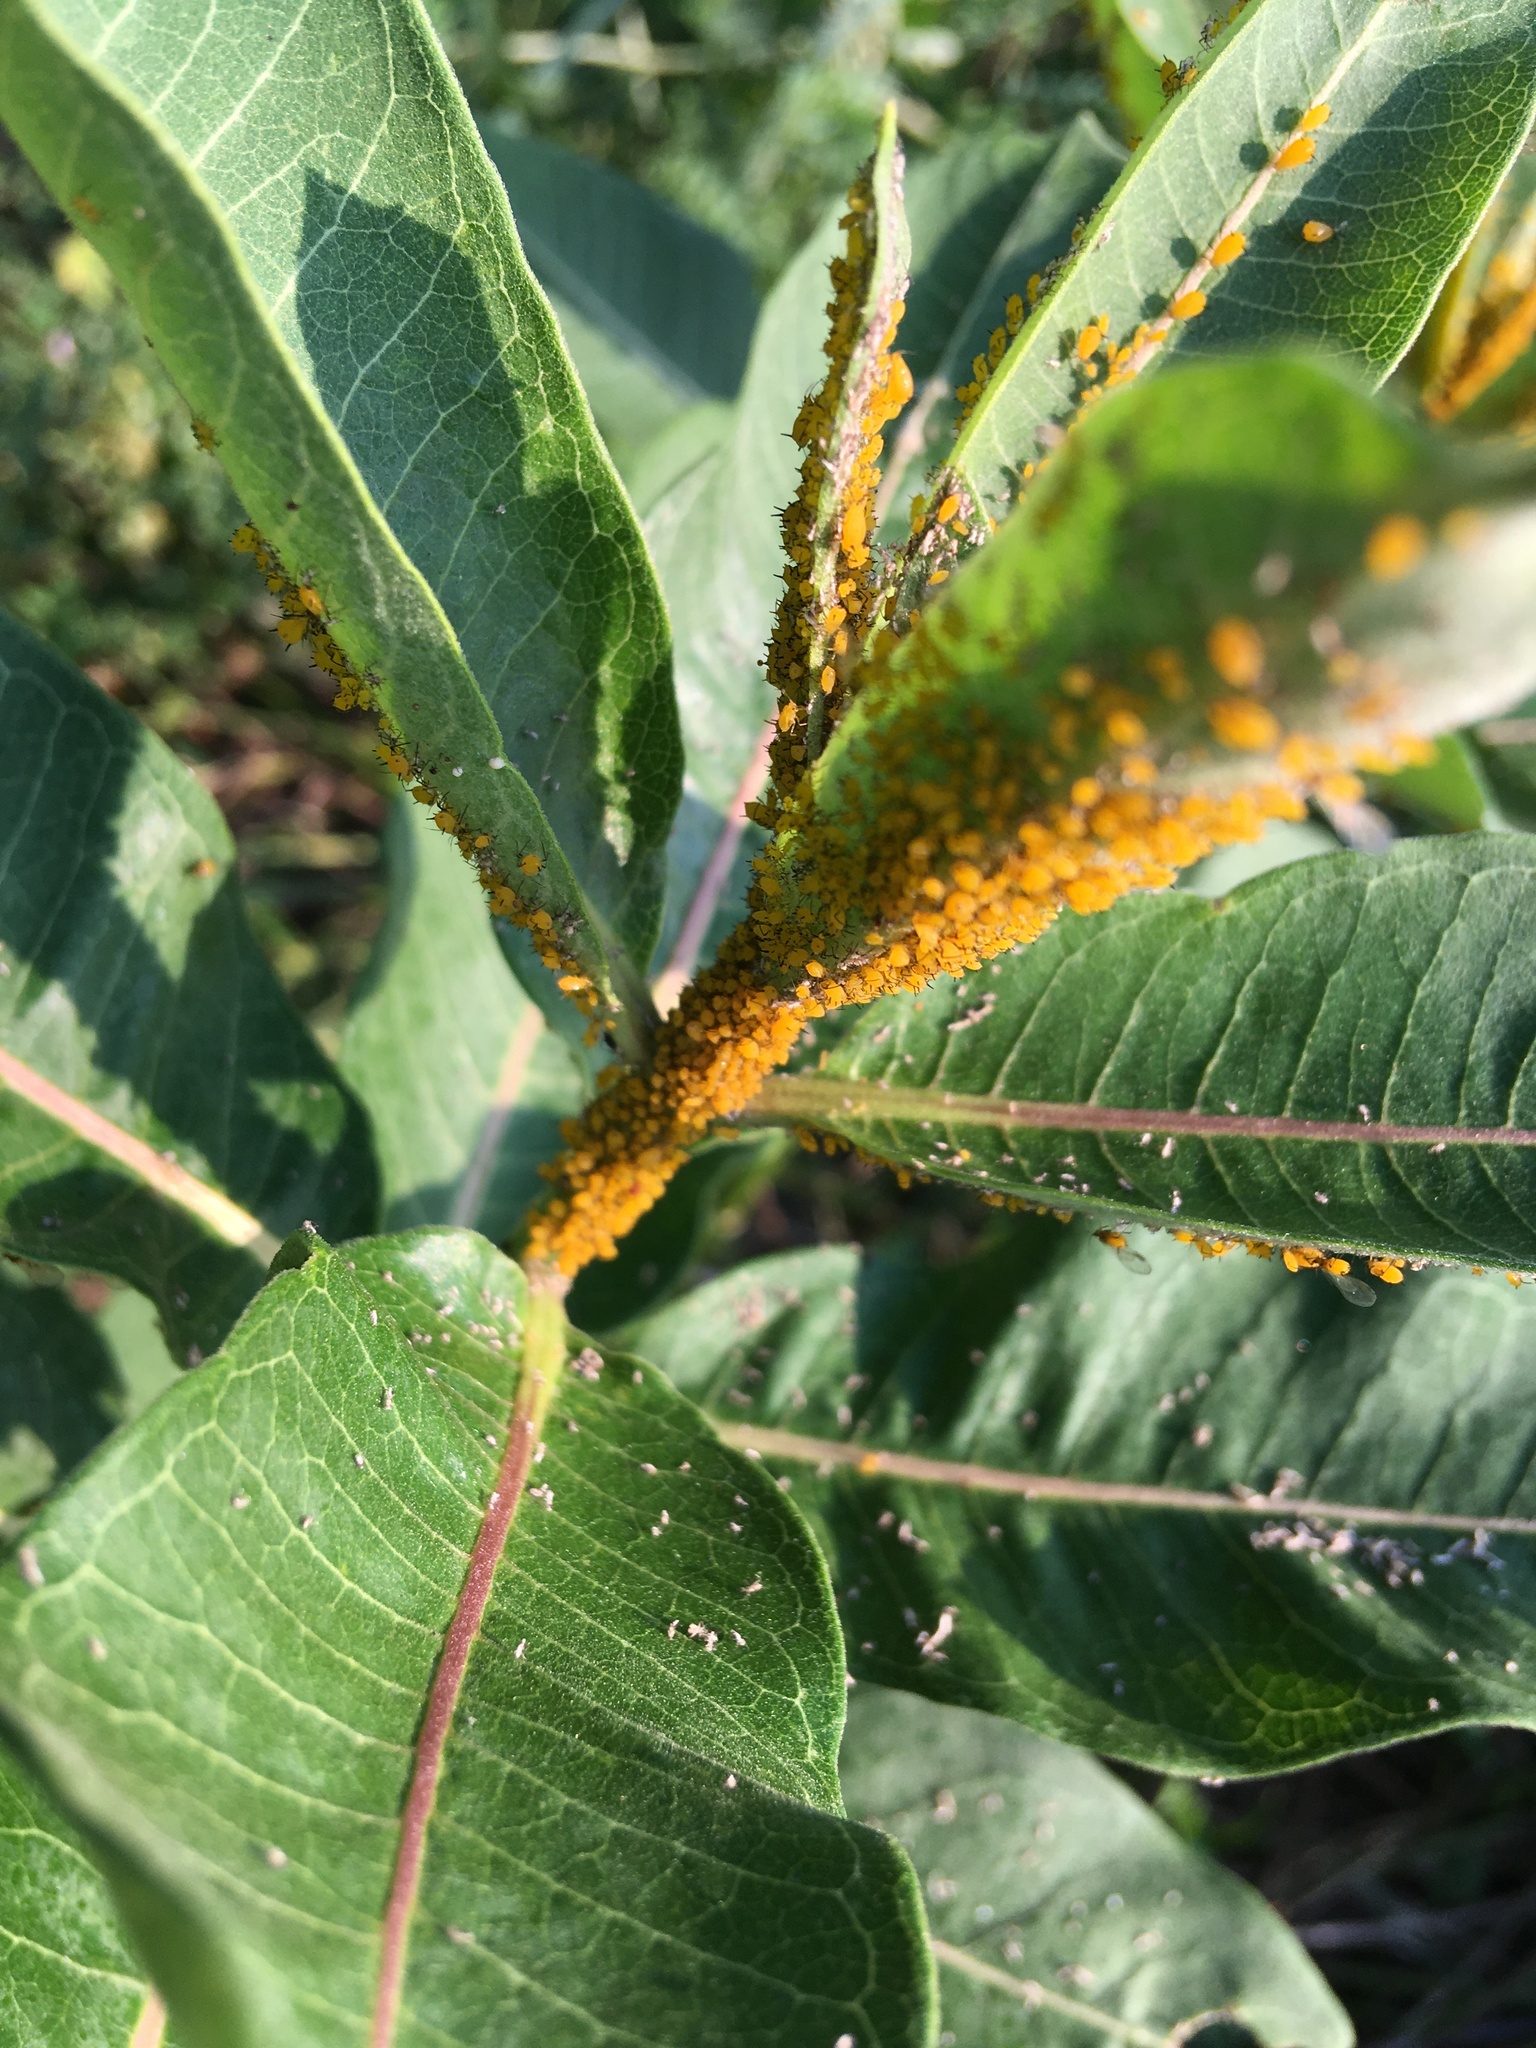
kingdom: Animalia
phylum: Arthropoda
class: Insecta
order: Hemiptera
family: Aphididae
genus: Aphis
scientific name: Aphis nerii
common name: Oleander aphid
